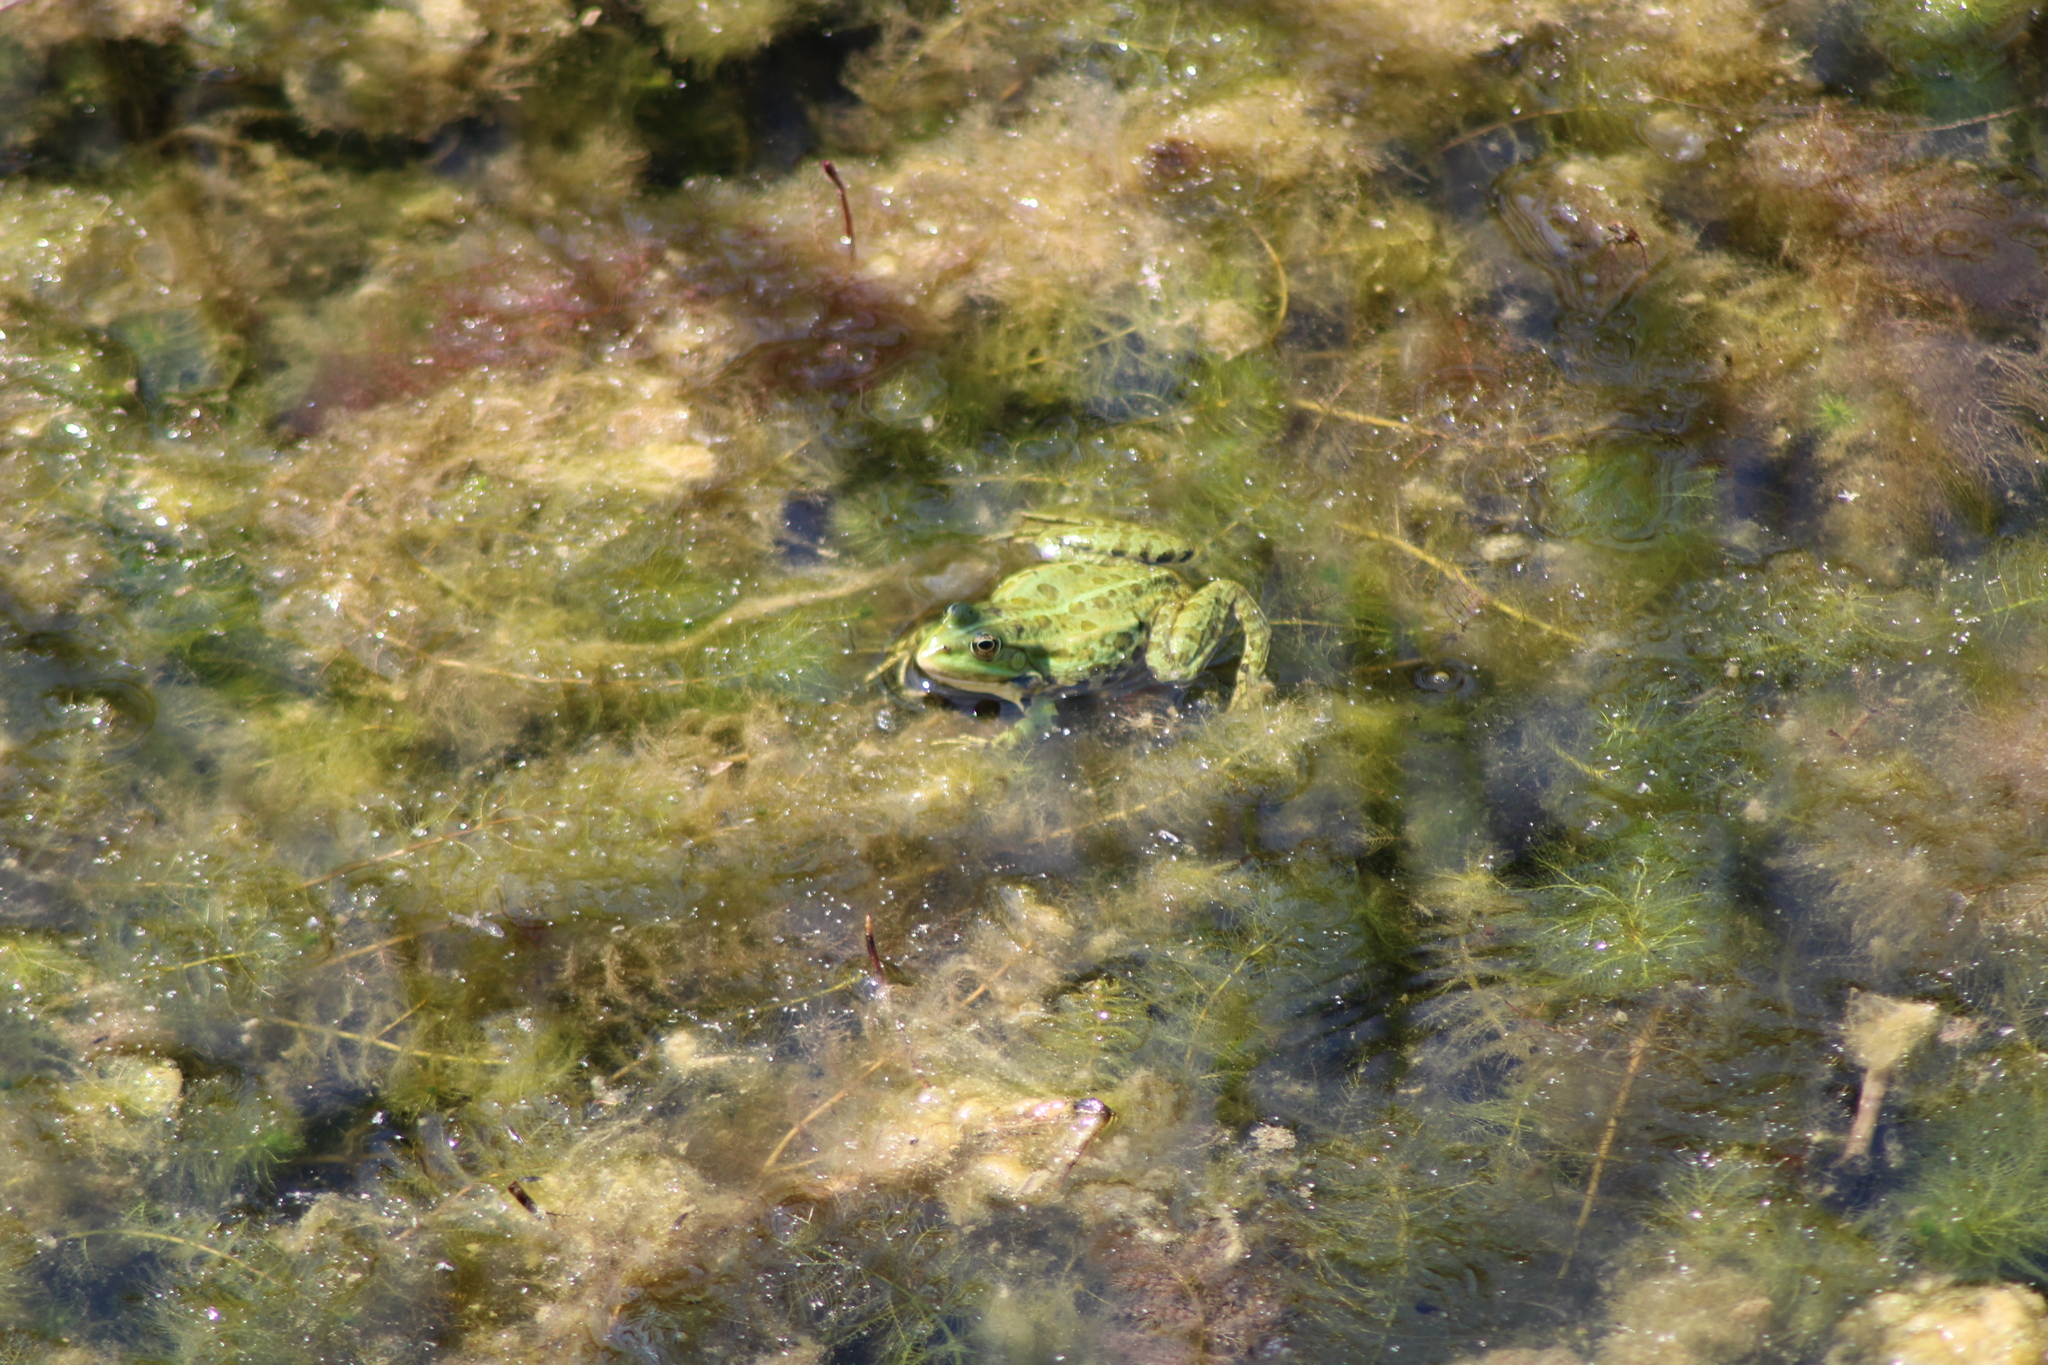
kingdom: Animalia
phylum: Chordata
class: Amphibia
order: Anura
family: Ranidae
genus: Pelophylax
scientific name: Pelophylax
